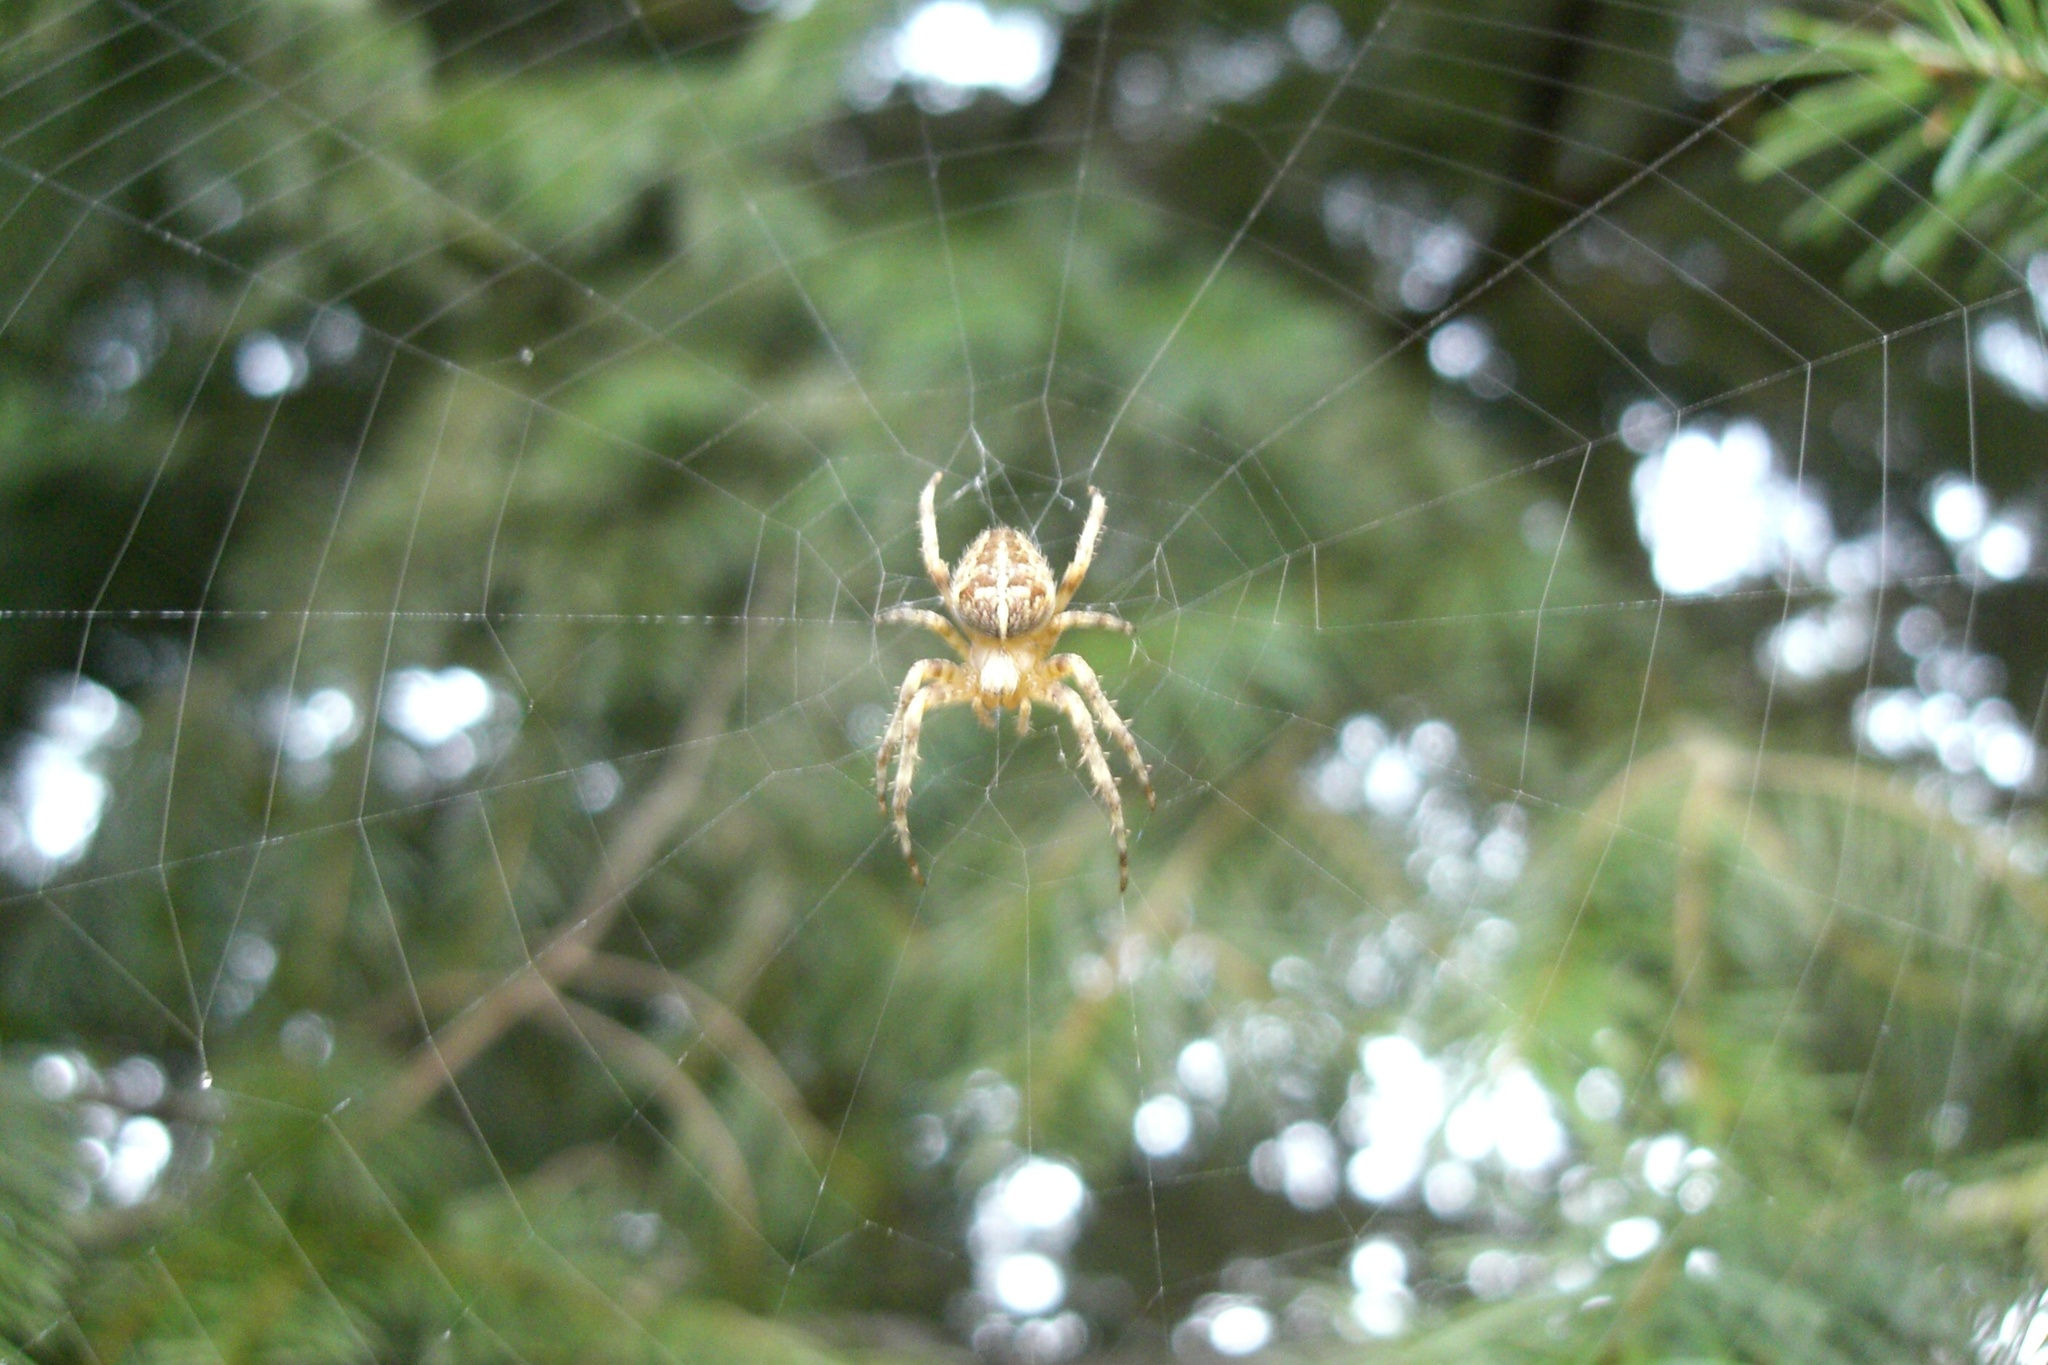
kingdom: Animalia
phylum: Arthropoda
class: Arachnida
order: Araneae
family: Araneidae
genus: Araneus
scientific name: Araneus diadematus
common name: Cross orbweaver
